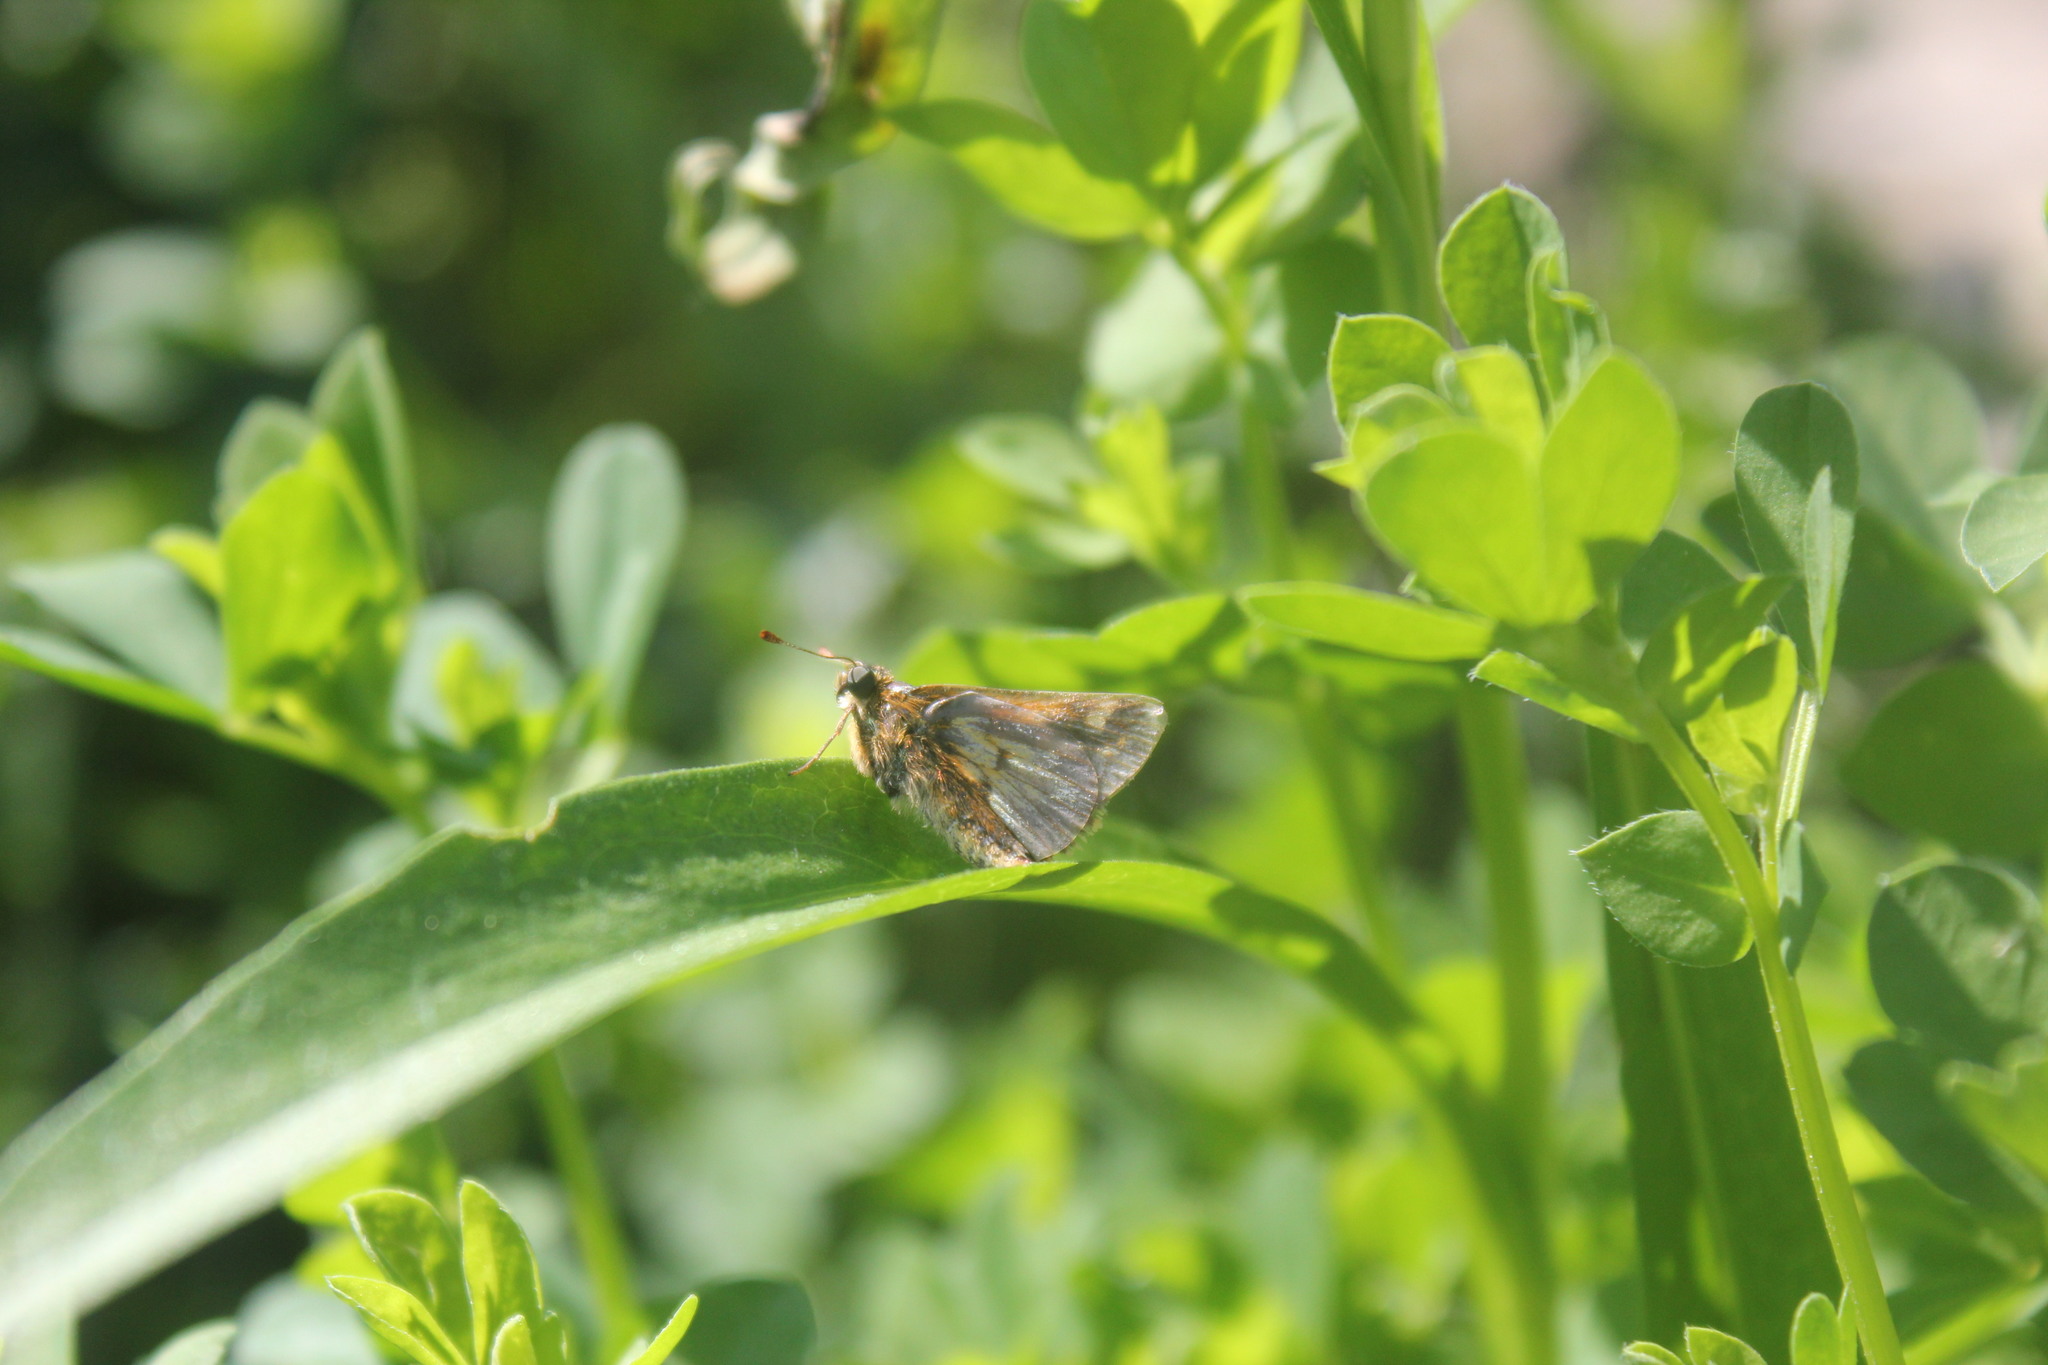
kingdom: Animalia
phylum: Arthropoda
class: Insecta
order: Lepidoptera
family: Hesperiidae
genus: Polites
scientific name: Polites themistocles
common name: Tawny-edged skipper
